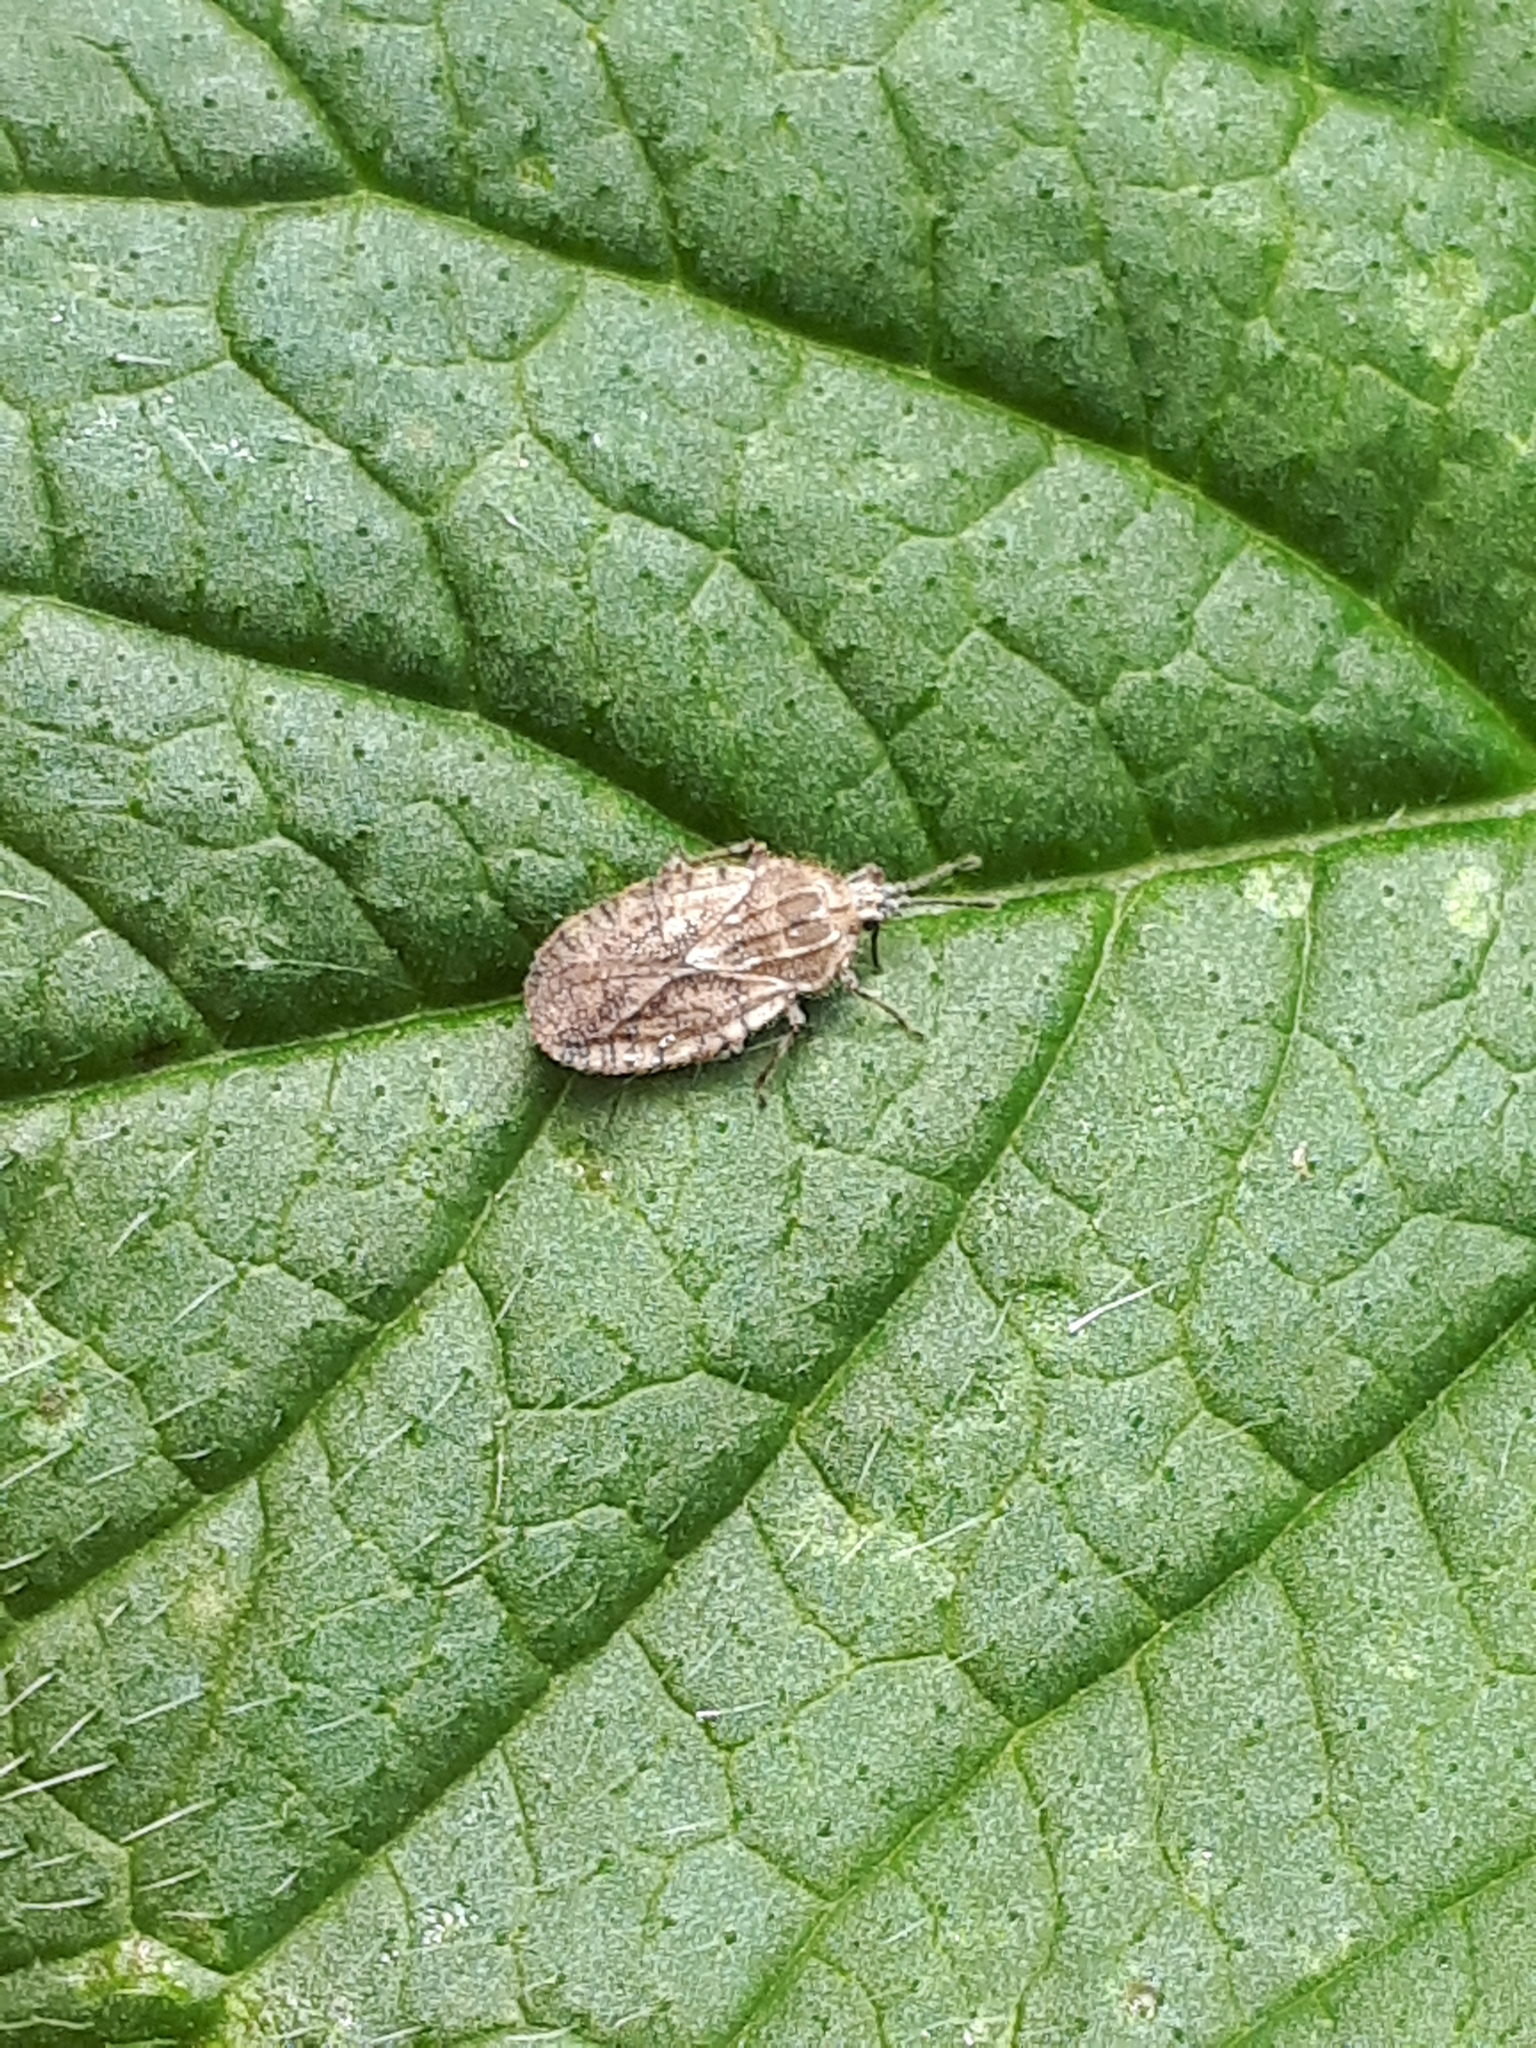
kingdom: Animalia
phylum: Arthropoda
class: Insecta
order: Hemiptera
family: Tingidae
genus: Tingis
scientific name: Tingis pilosa
